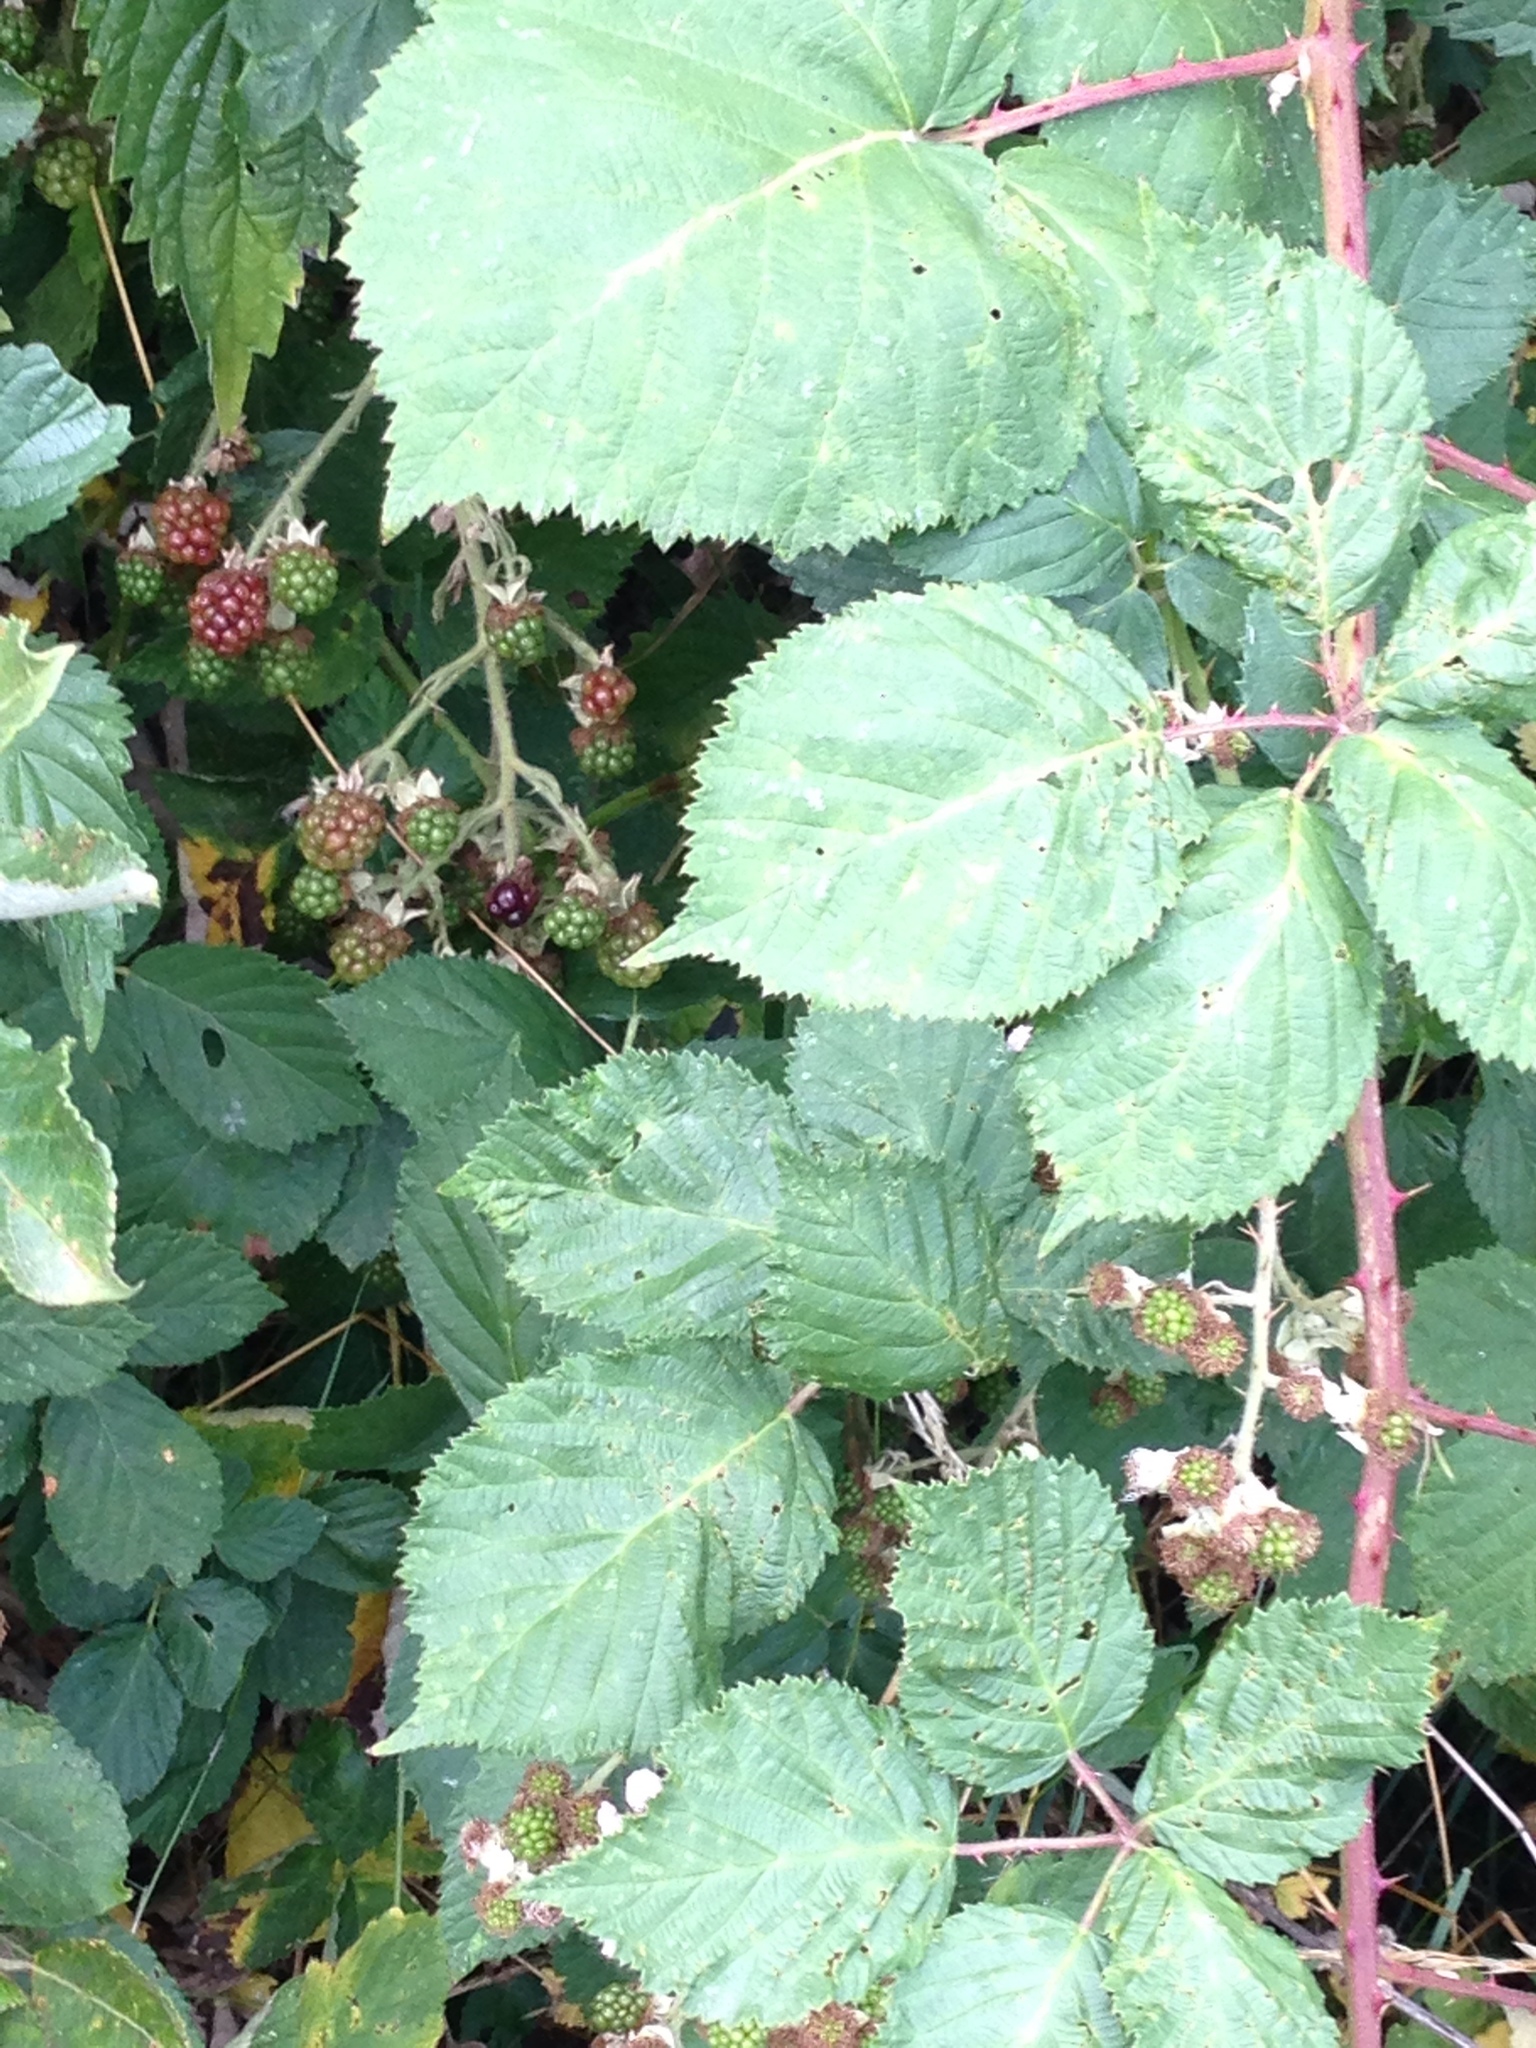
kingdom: Plantae
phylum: Tracheophyta
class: Magnoliopsida
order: Rosales
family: Rosaceae
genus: Rubus
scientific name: Rubus armeniacus
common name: Himalayan blackberry
